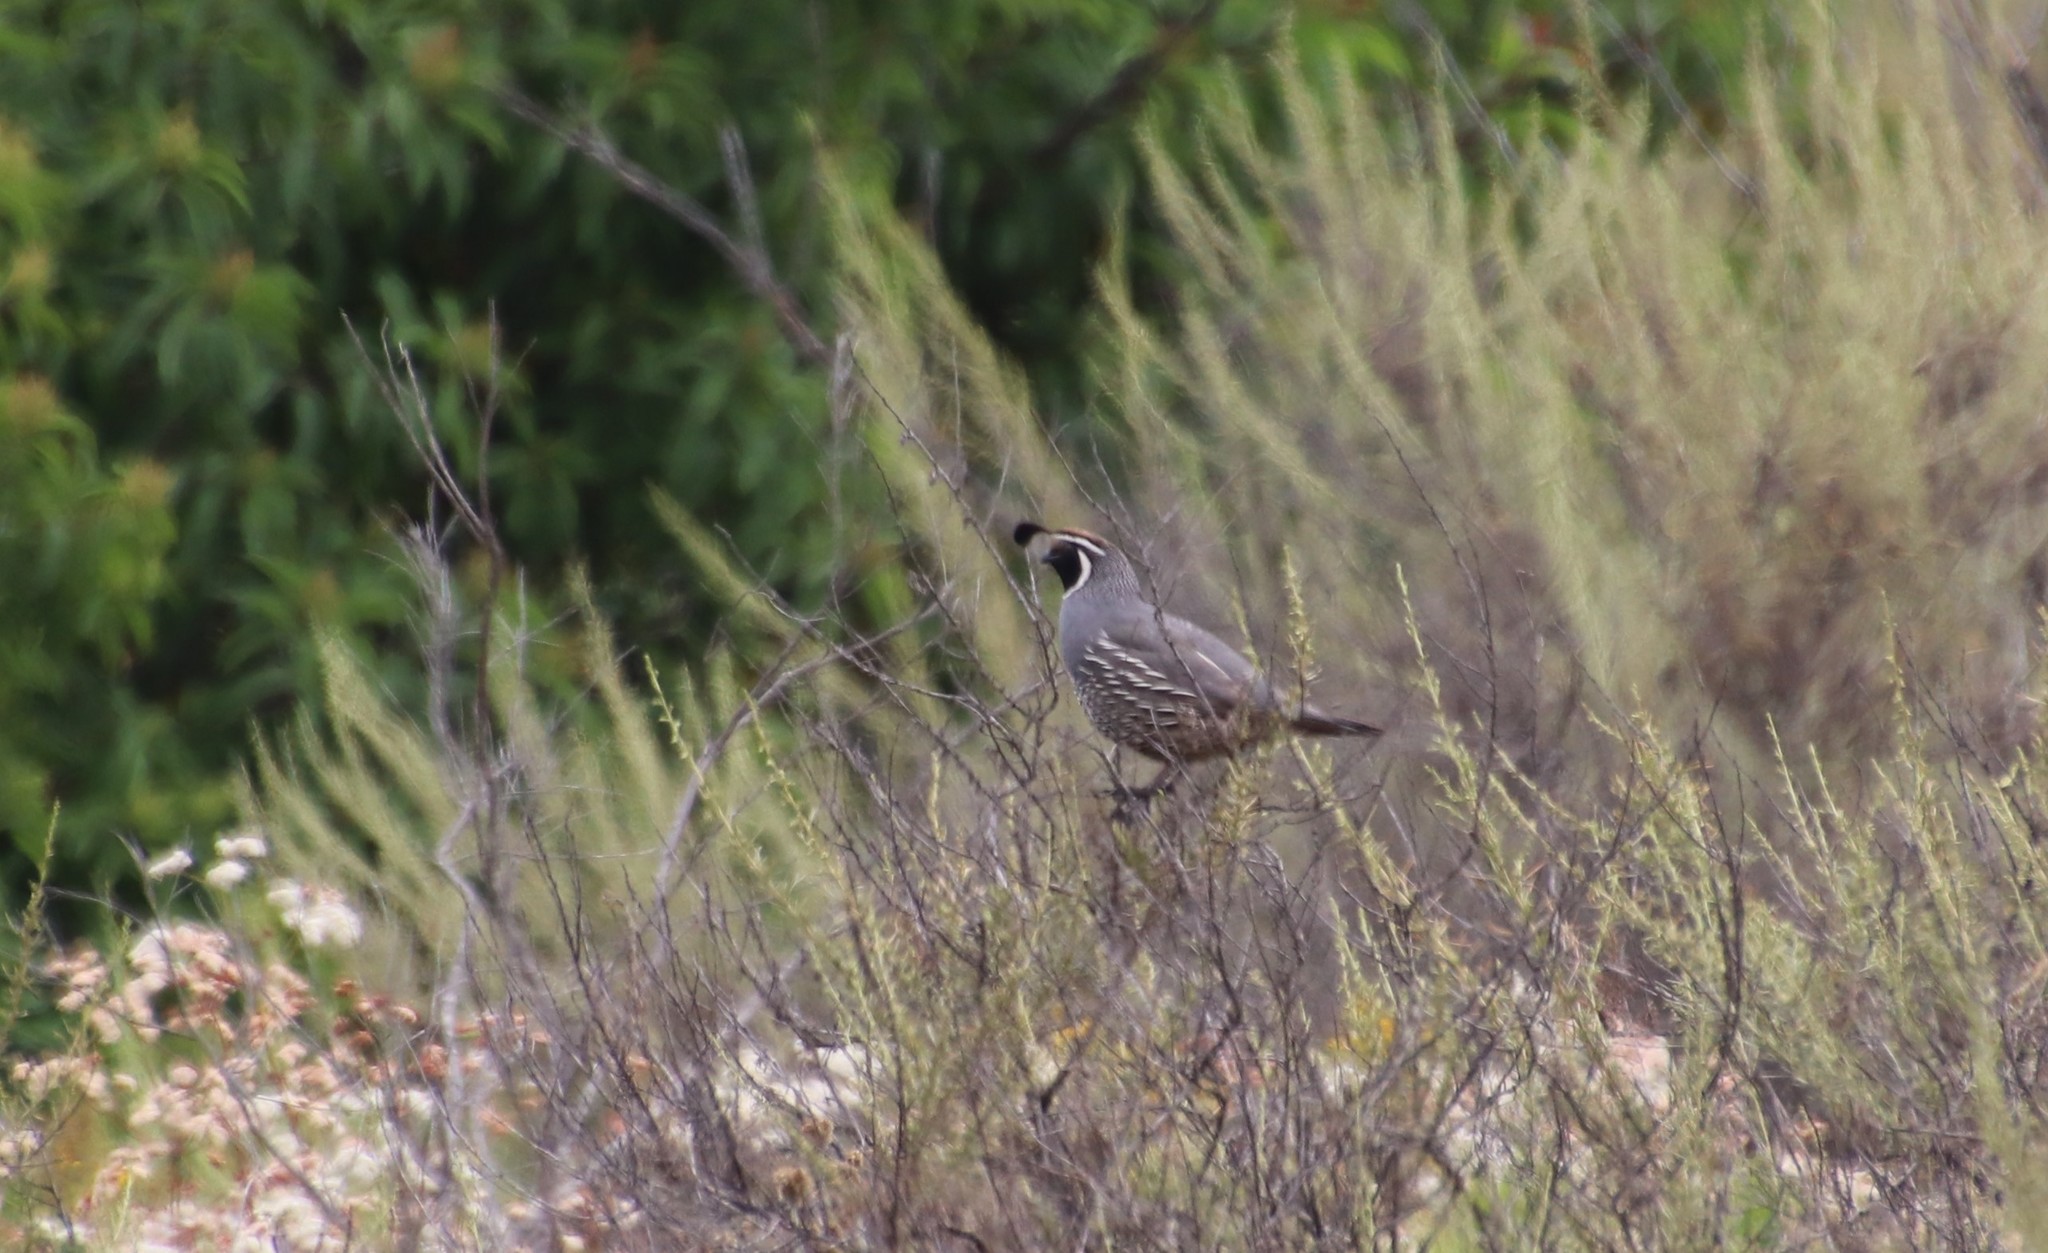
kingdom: Animalia
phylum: Chordata
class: Aves
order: Galliformes
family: Odontophoridae
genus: Callipepla
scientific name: Callipepla californica
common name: California quail
